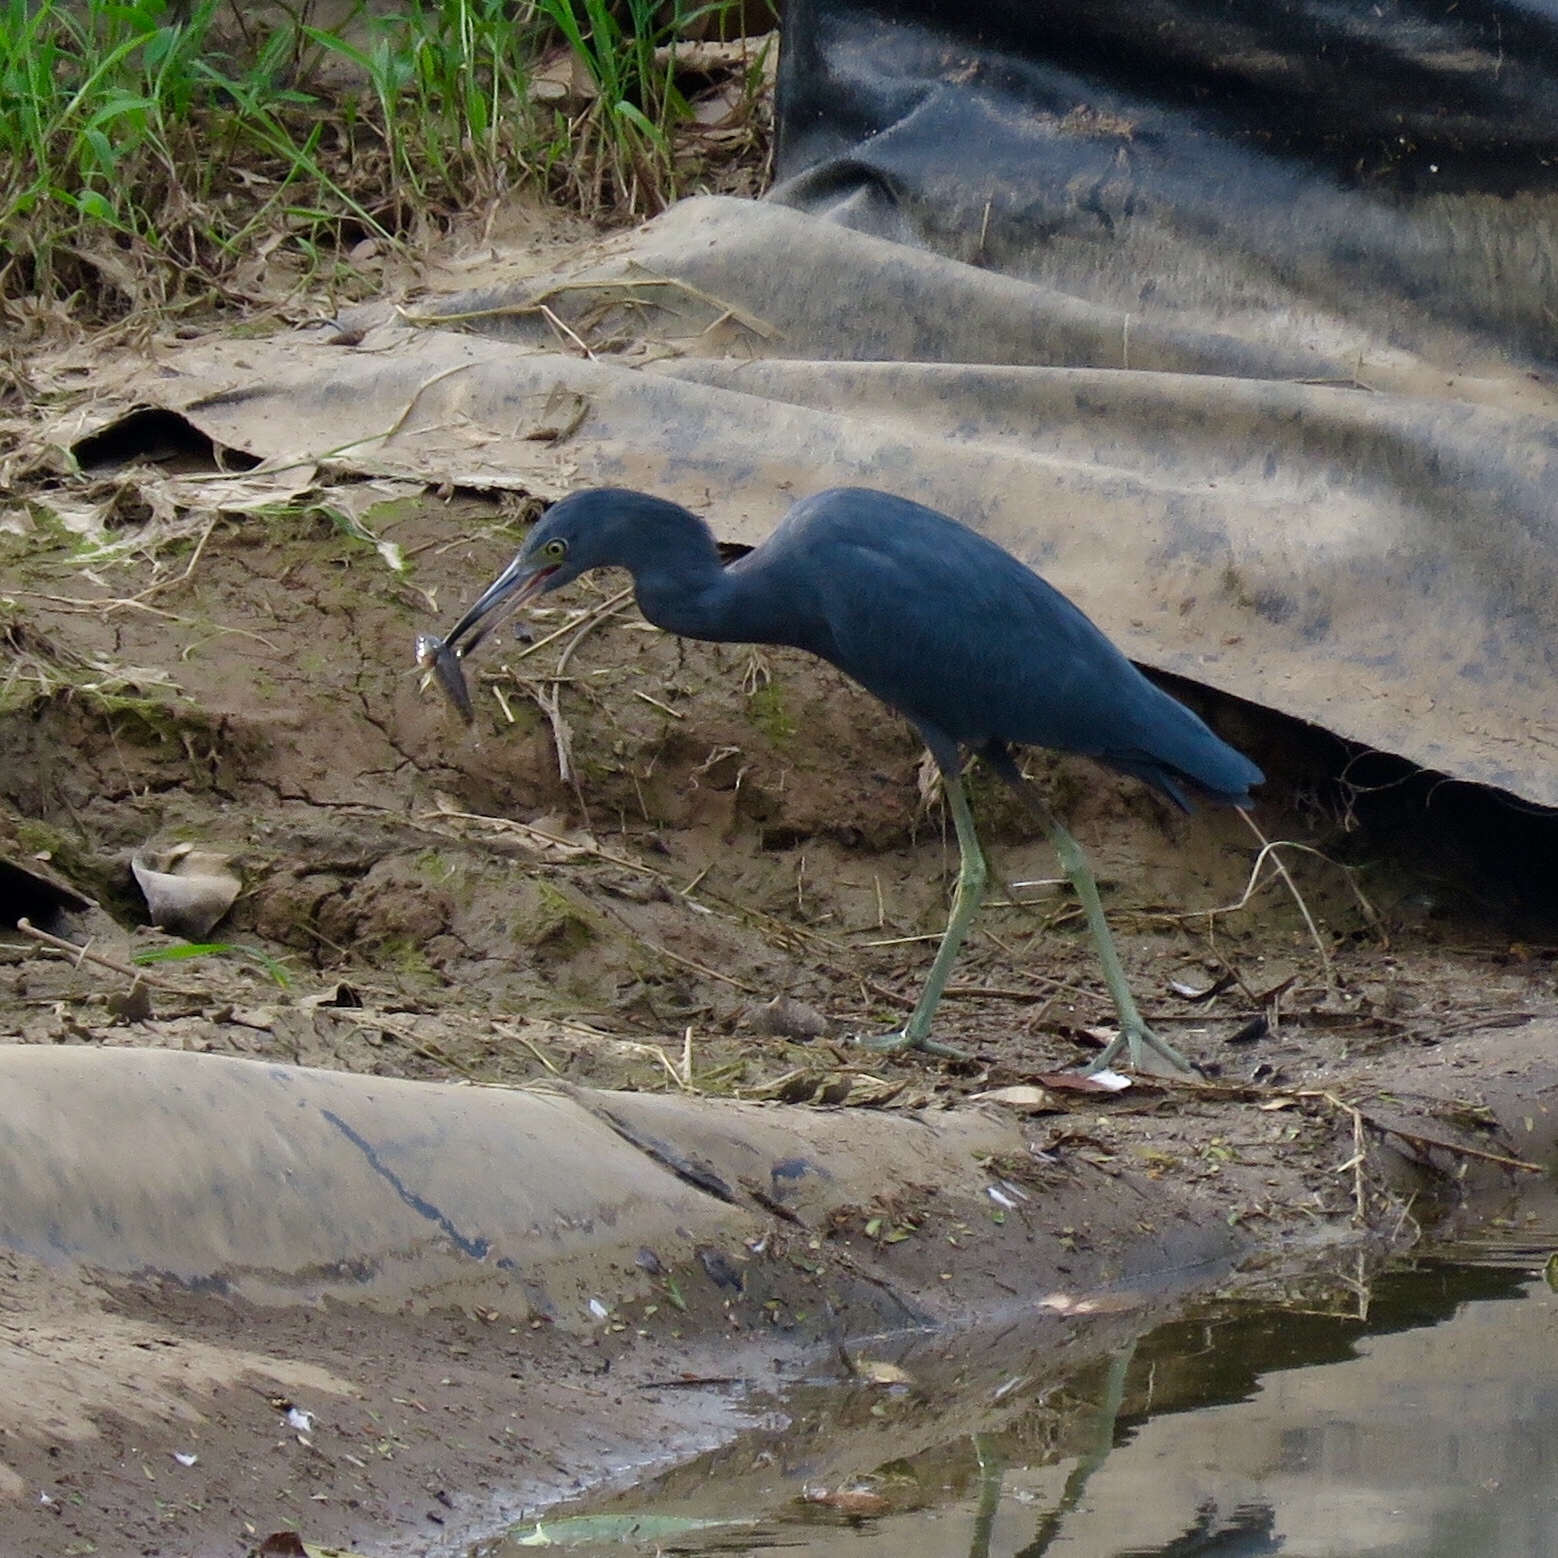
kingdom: Animalia
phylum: Chordata
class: Aves
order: Pelecaniformes
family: Ardeidae
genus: Egretta
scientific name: Egretta caerulea
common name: Little blue heron
